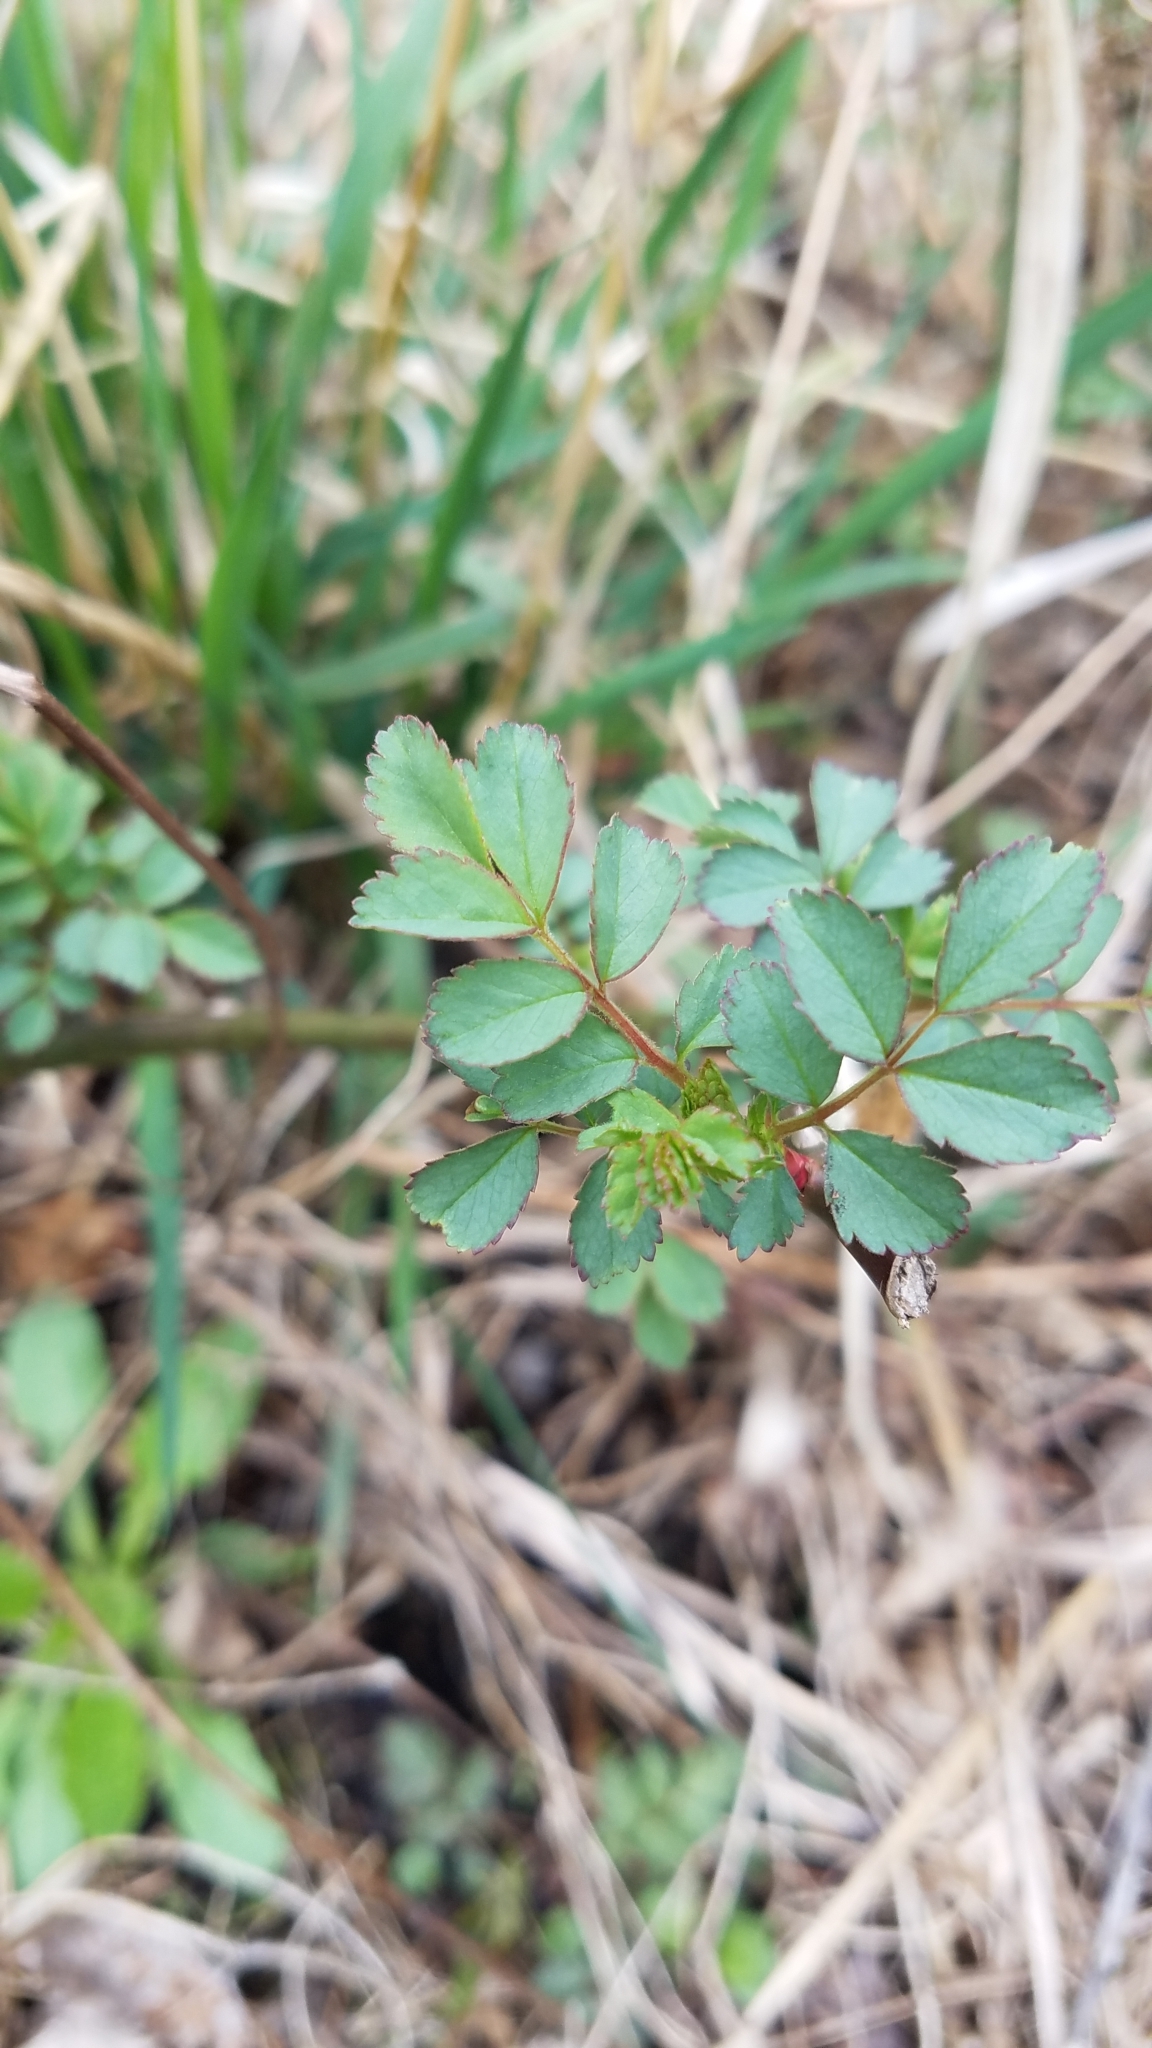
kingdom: Plantae
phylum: Tracheophyta
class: Magnoliopsida
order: Rosales
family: Rosaceae
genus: Rosa
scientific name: Rosa multiflora
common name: Multiflora rose
